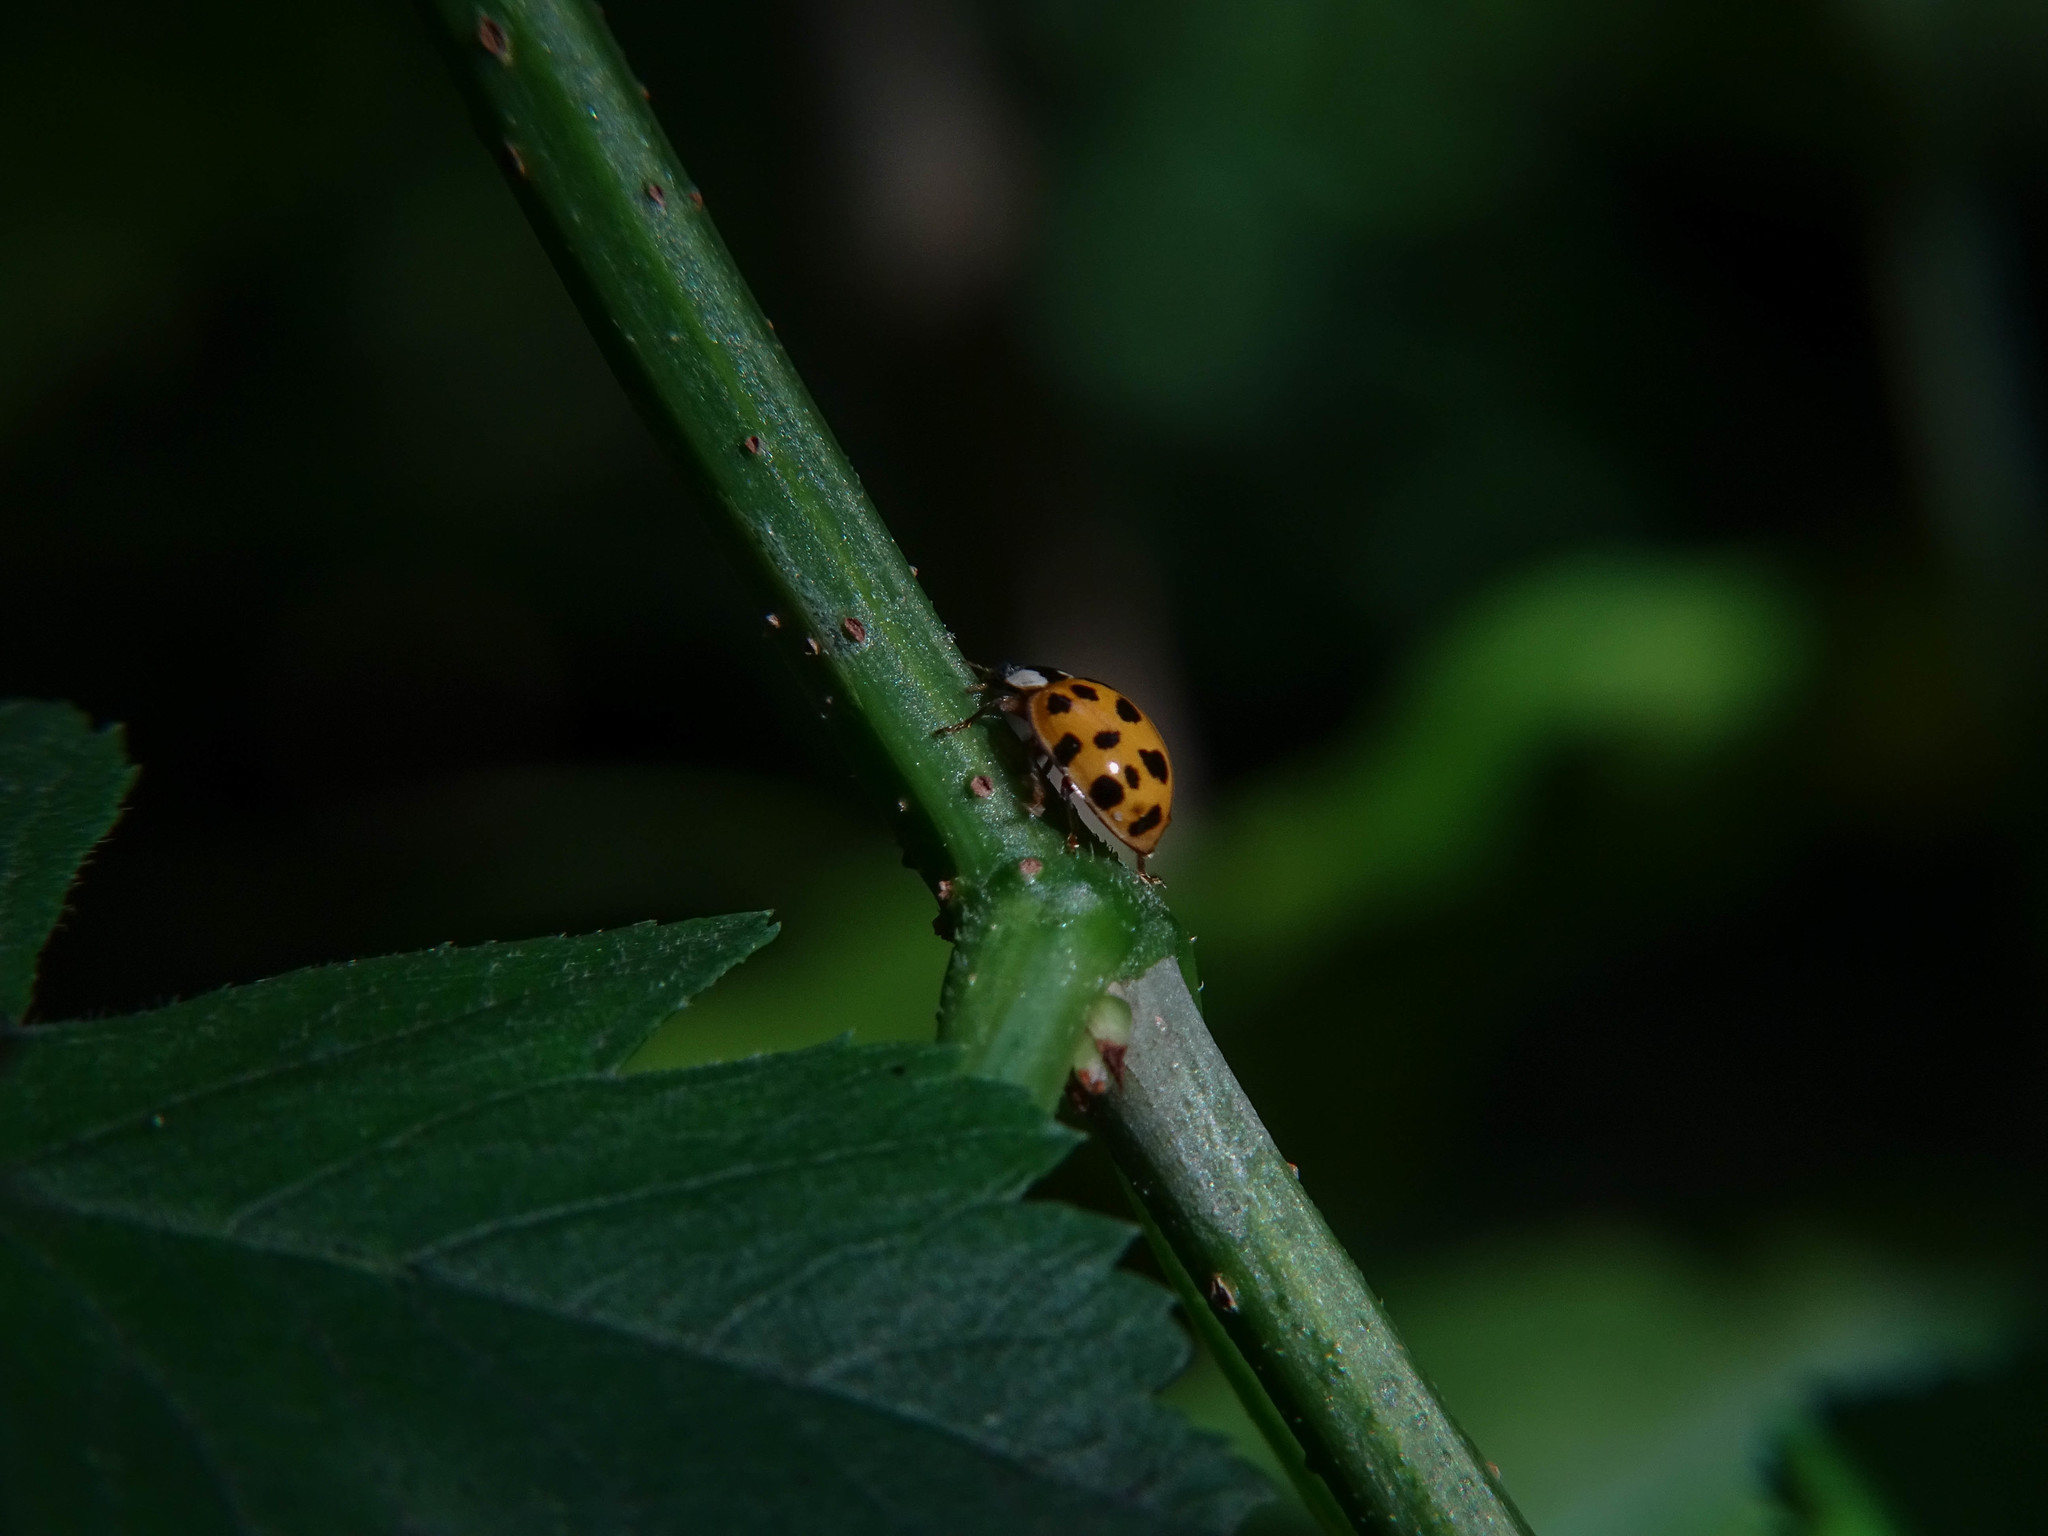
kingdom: Animalia
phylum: Arthropoda
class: Insecta
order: Coleoptera
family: Coccinellidae
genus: Harmonia
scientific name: Harmonia axyridis
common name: Harlequin ladybird
